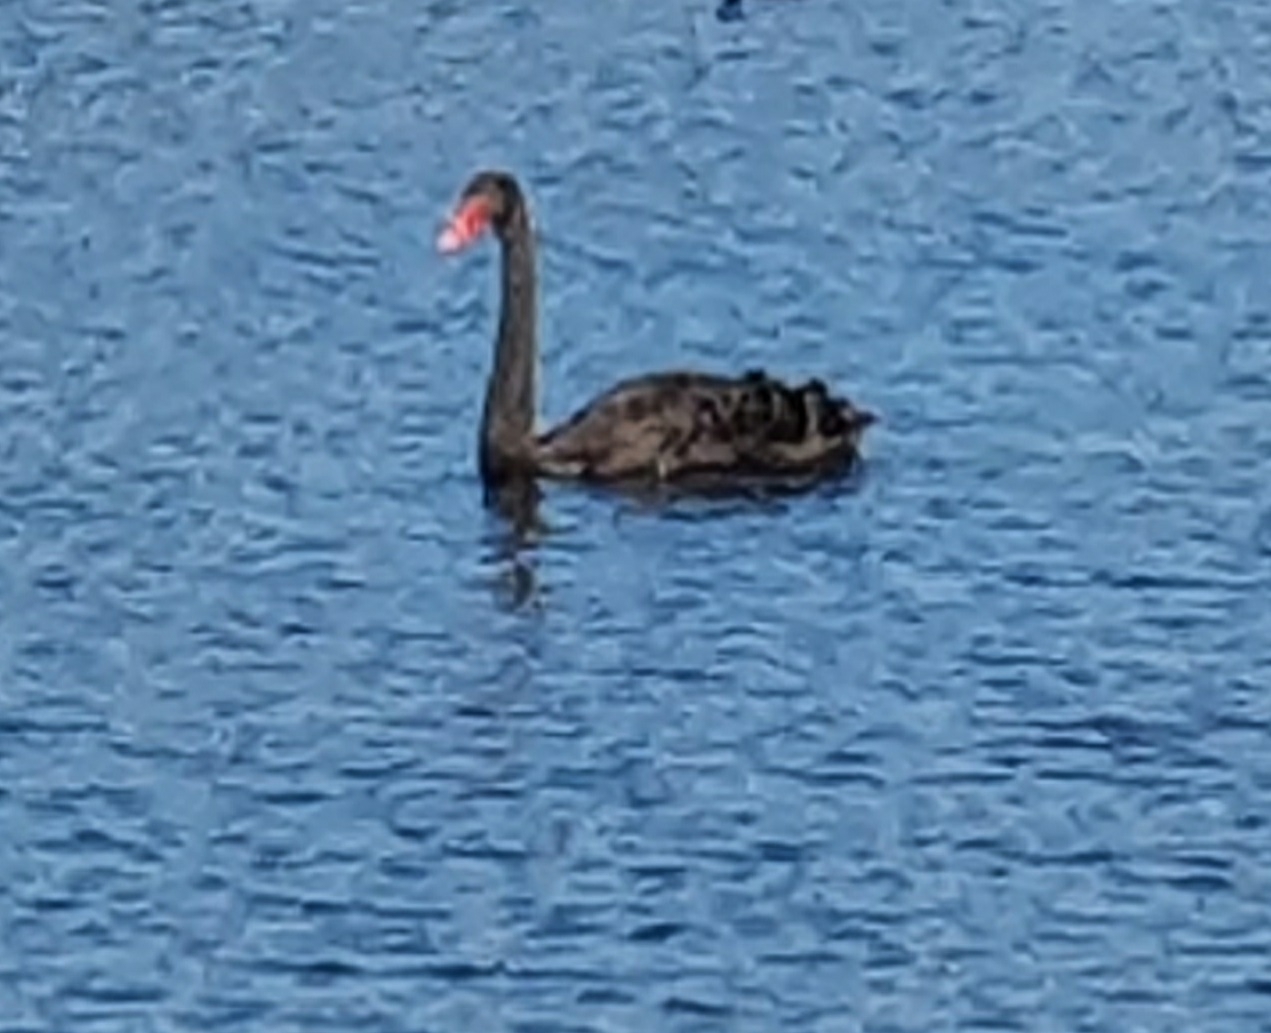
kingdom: Animalia
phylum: Chordata
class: Aves
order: Anseriformes
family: Anatidae
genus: Cygnus
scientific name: Cygnus atratus
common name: Black swan
